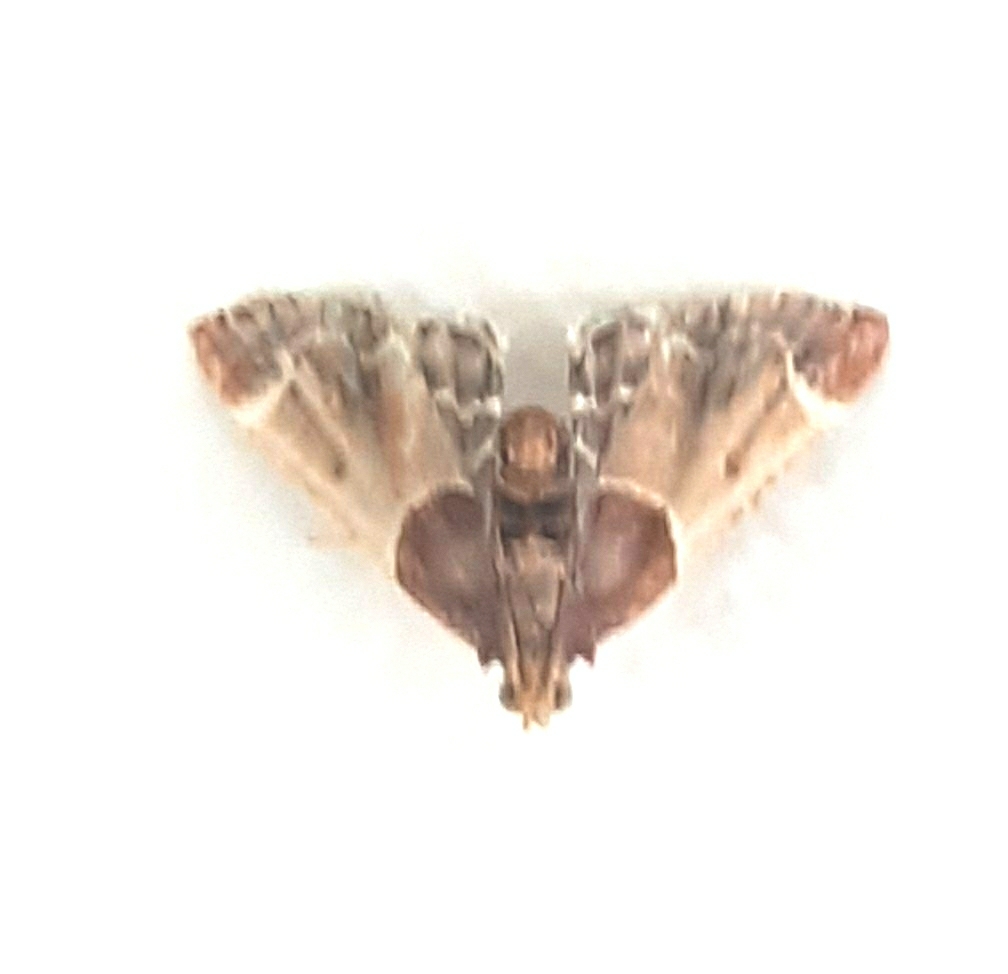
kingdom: Animalia
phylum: Arthropoda
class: Insecta
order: Lepidoptera
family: Pyralidae
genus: Pyralis
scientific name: Pyralis farinalis
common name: Meal moth
